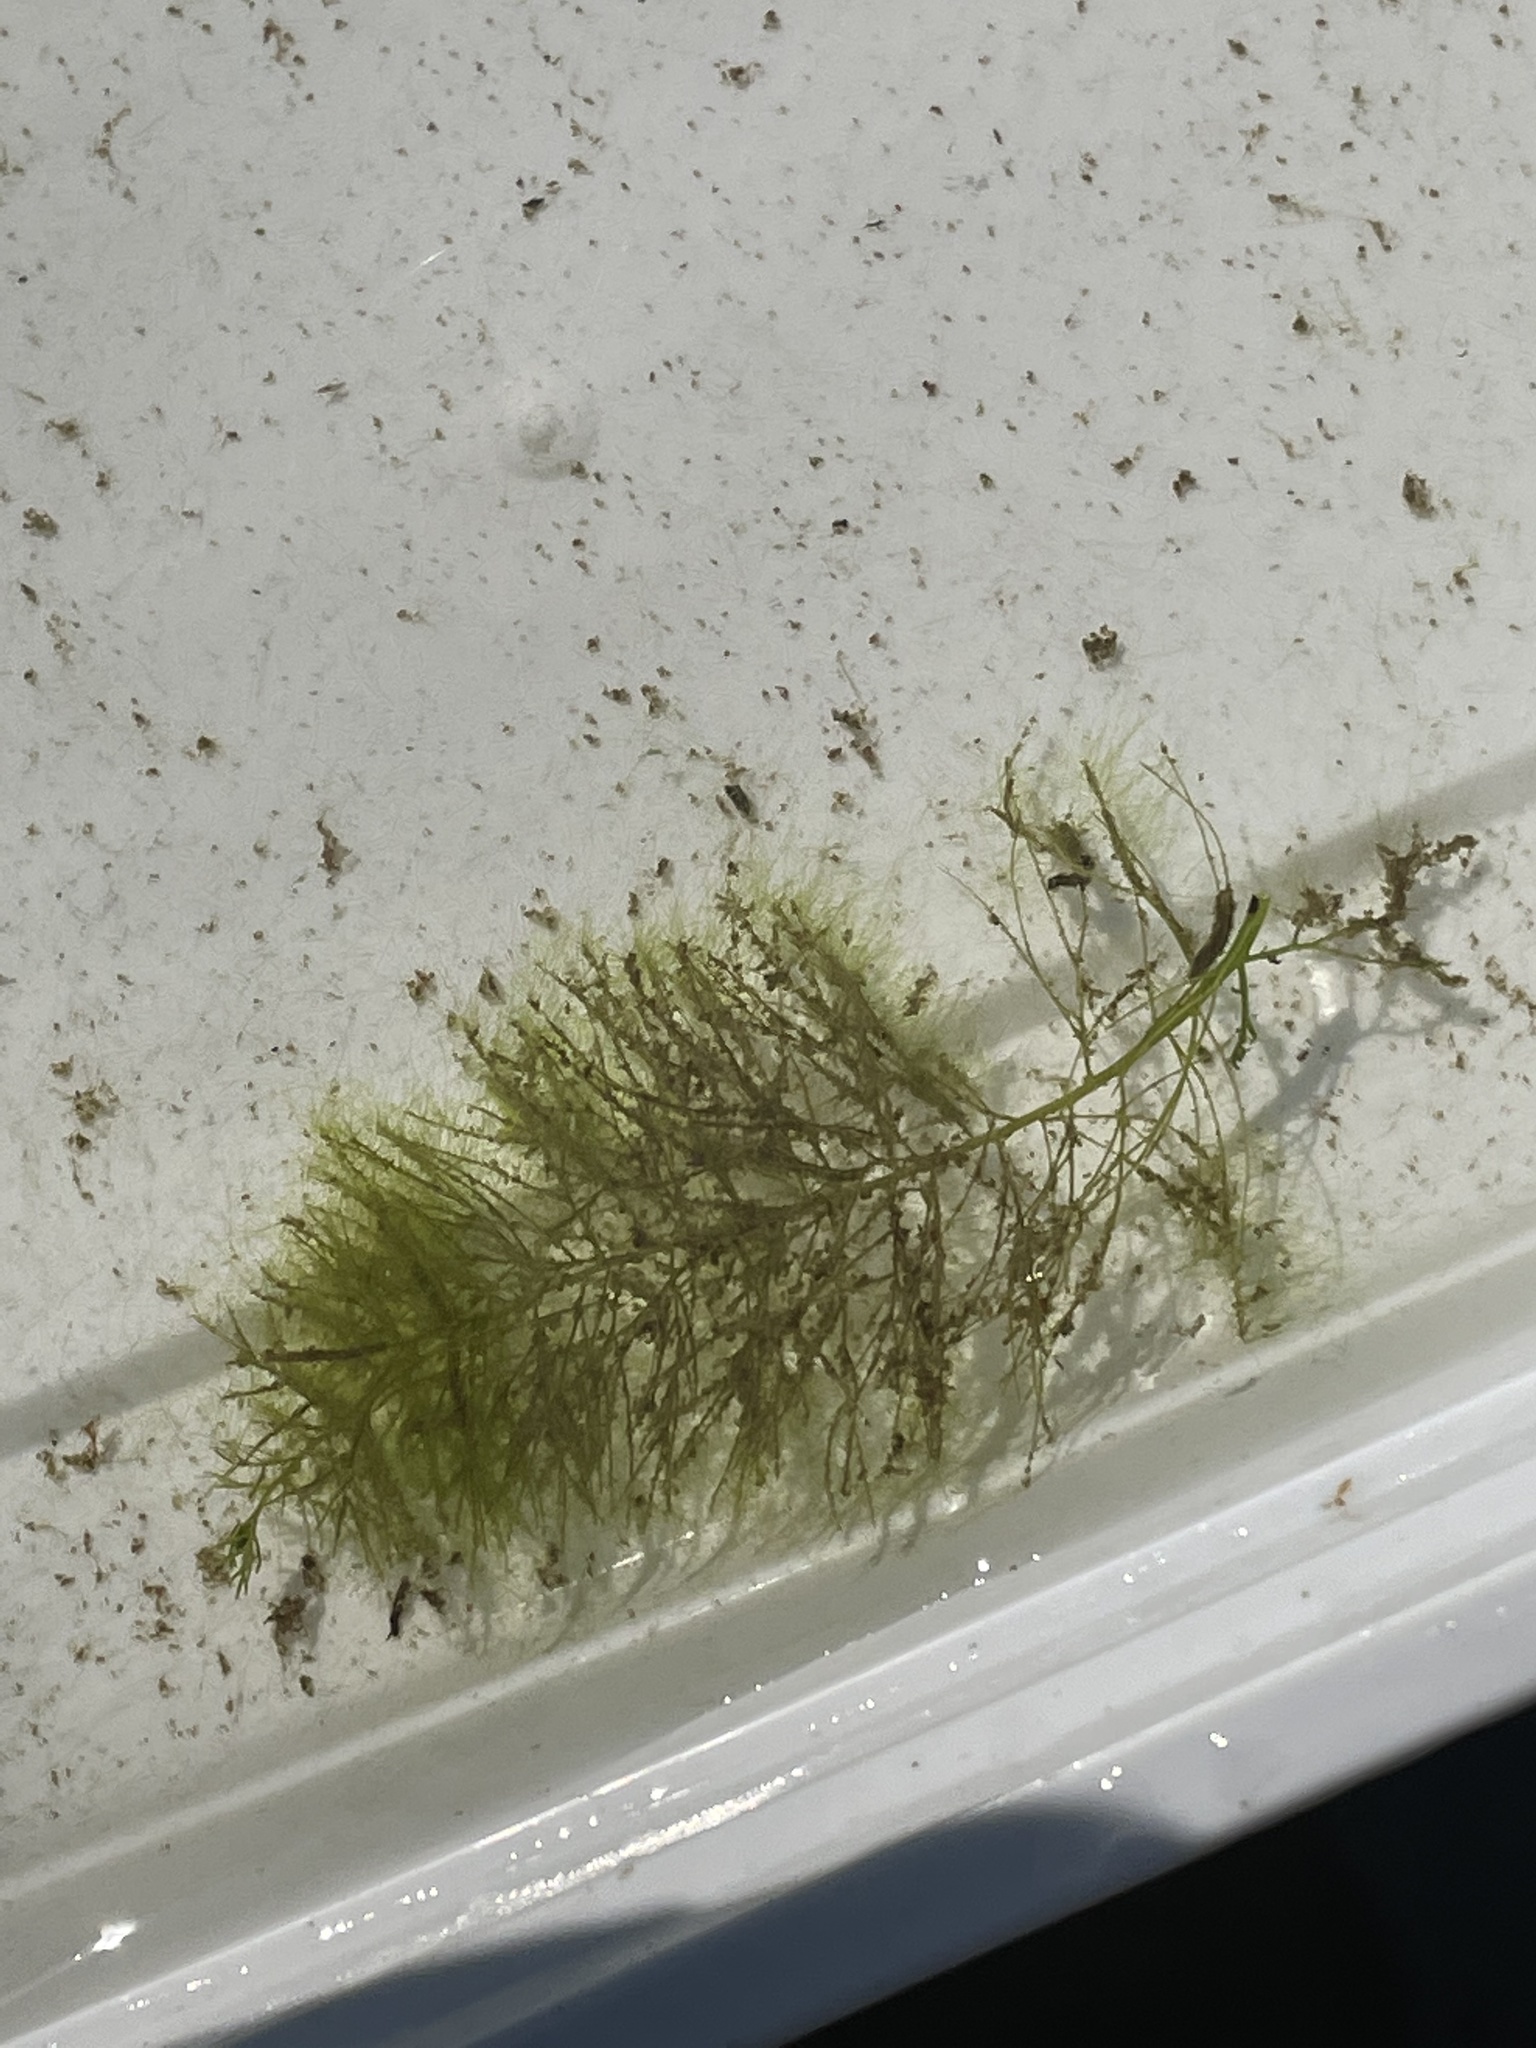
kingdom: Plantae
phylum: Tracheophyta
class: Magnoliopsida
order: Saxifragales
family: Haloragaceae
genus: Myriophyllum
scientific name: Myriophyllum humile
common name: Low water-milfoil
